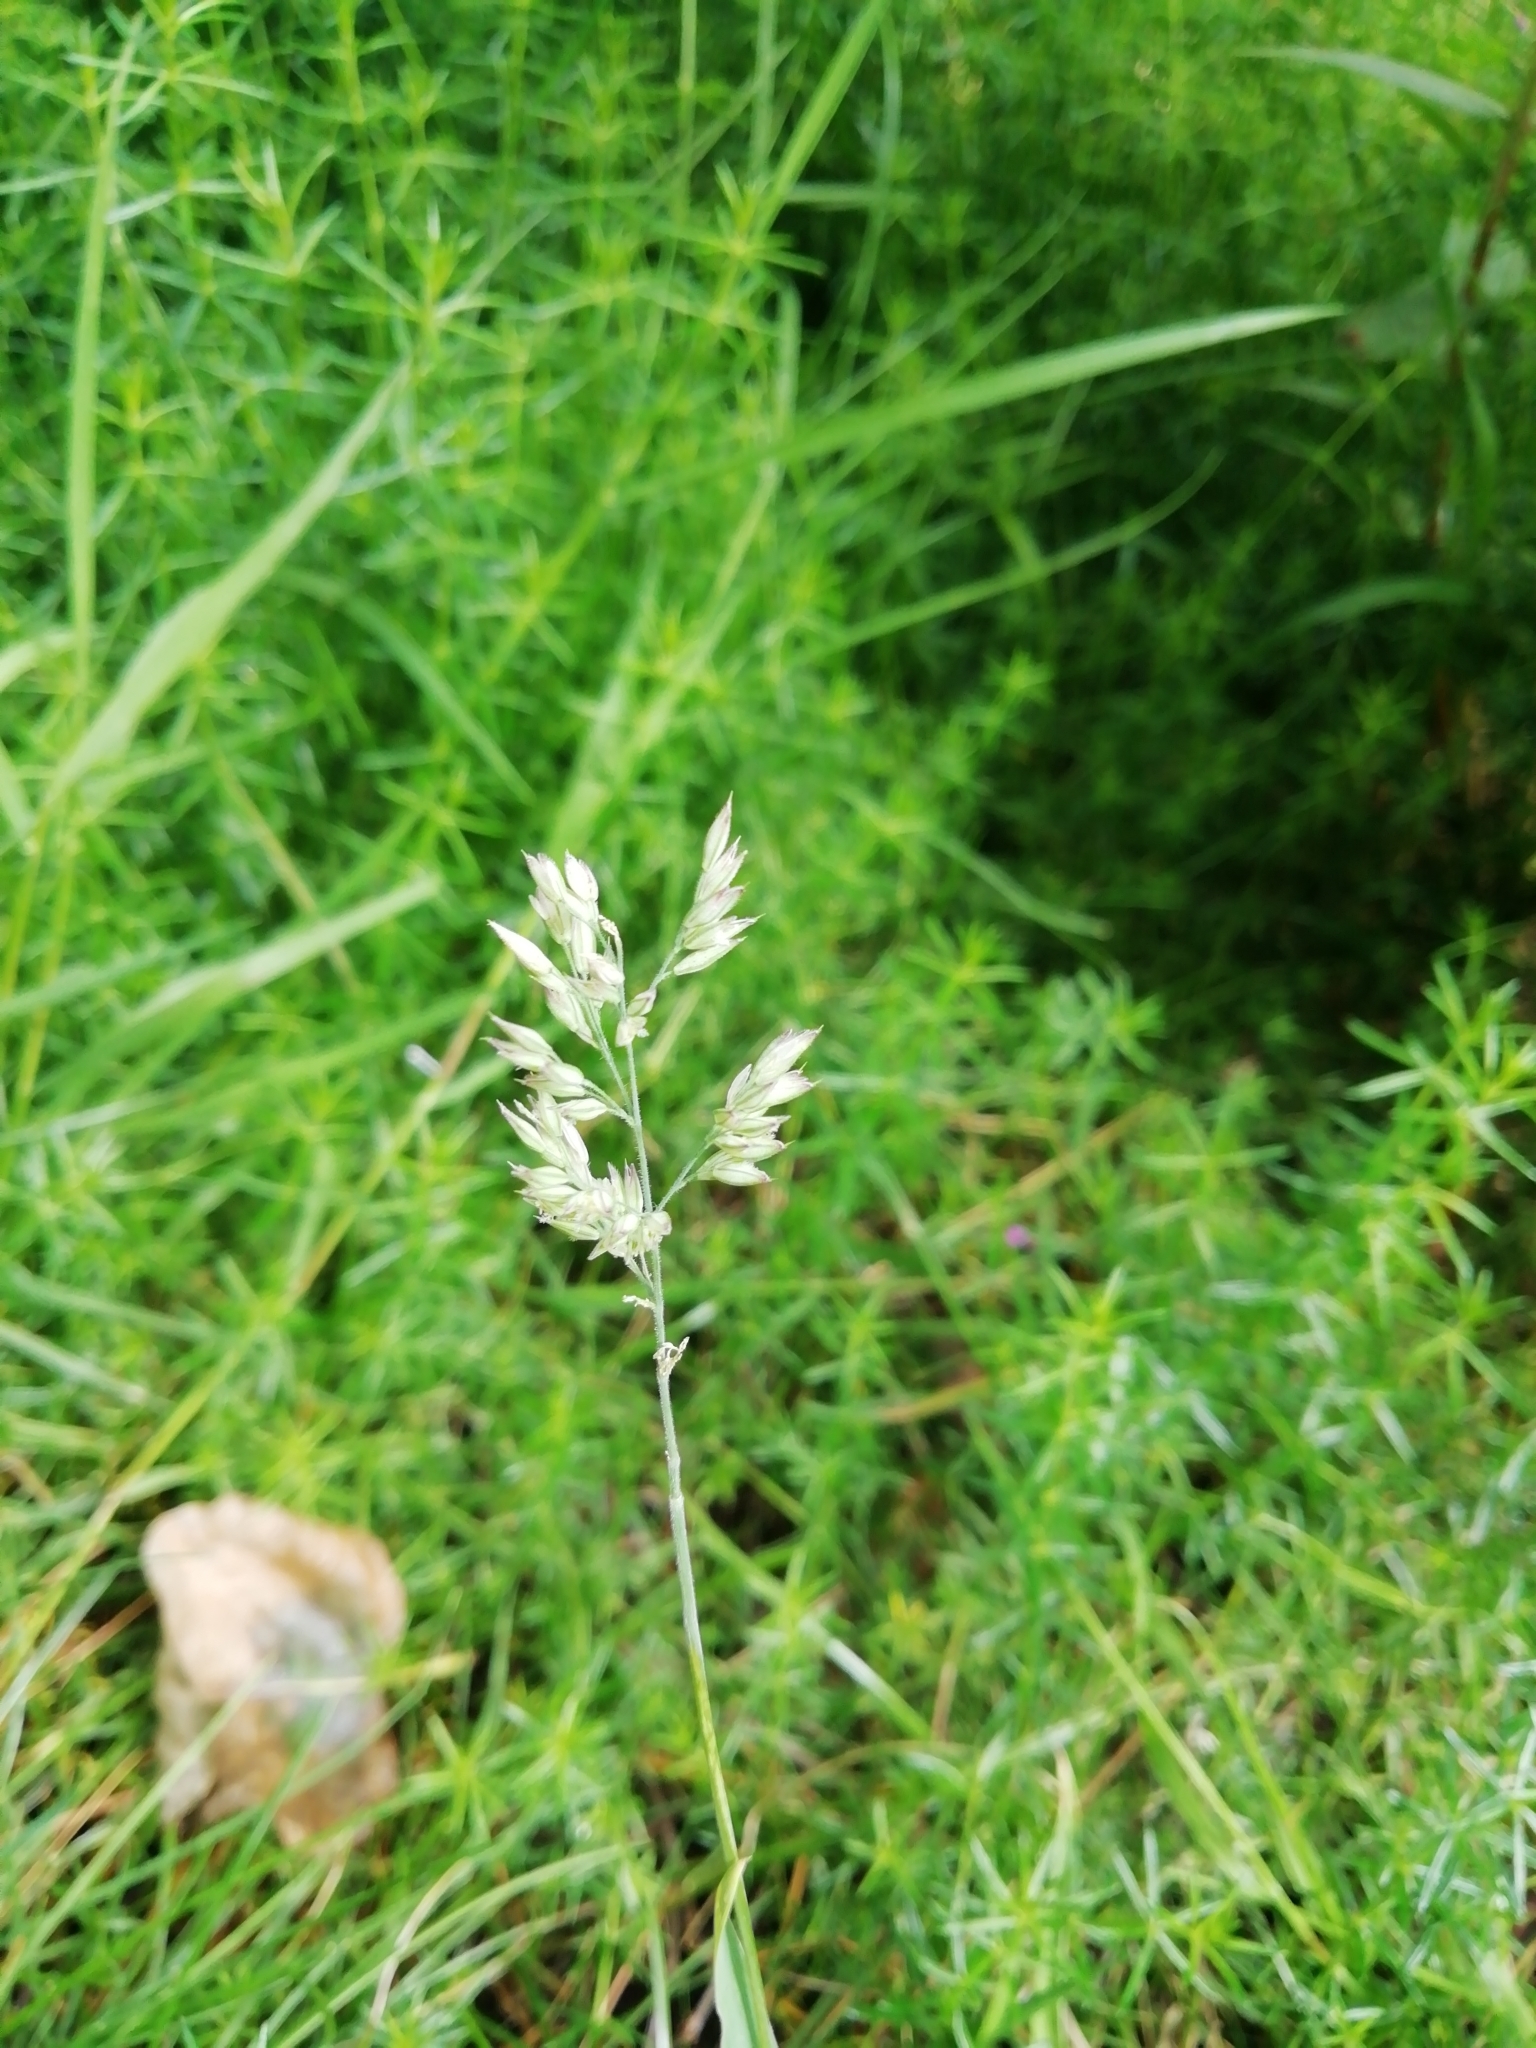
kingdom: Plantae
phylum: Tracheophyta
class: Liliopsida
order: Poales
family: Poaceae
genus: Holcus
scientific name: Holcus lanatus
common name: Yorkshire-fog
